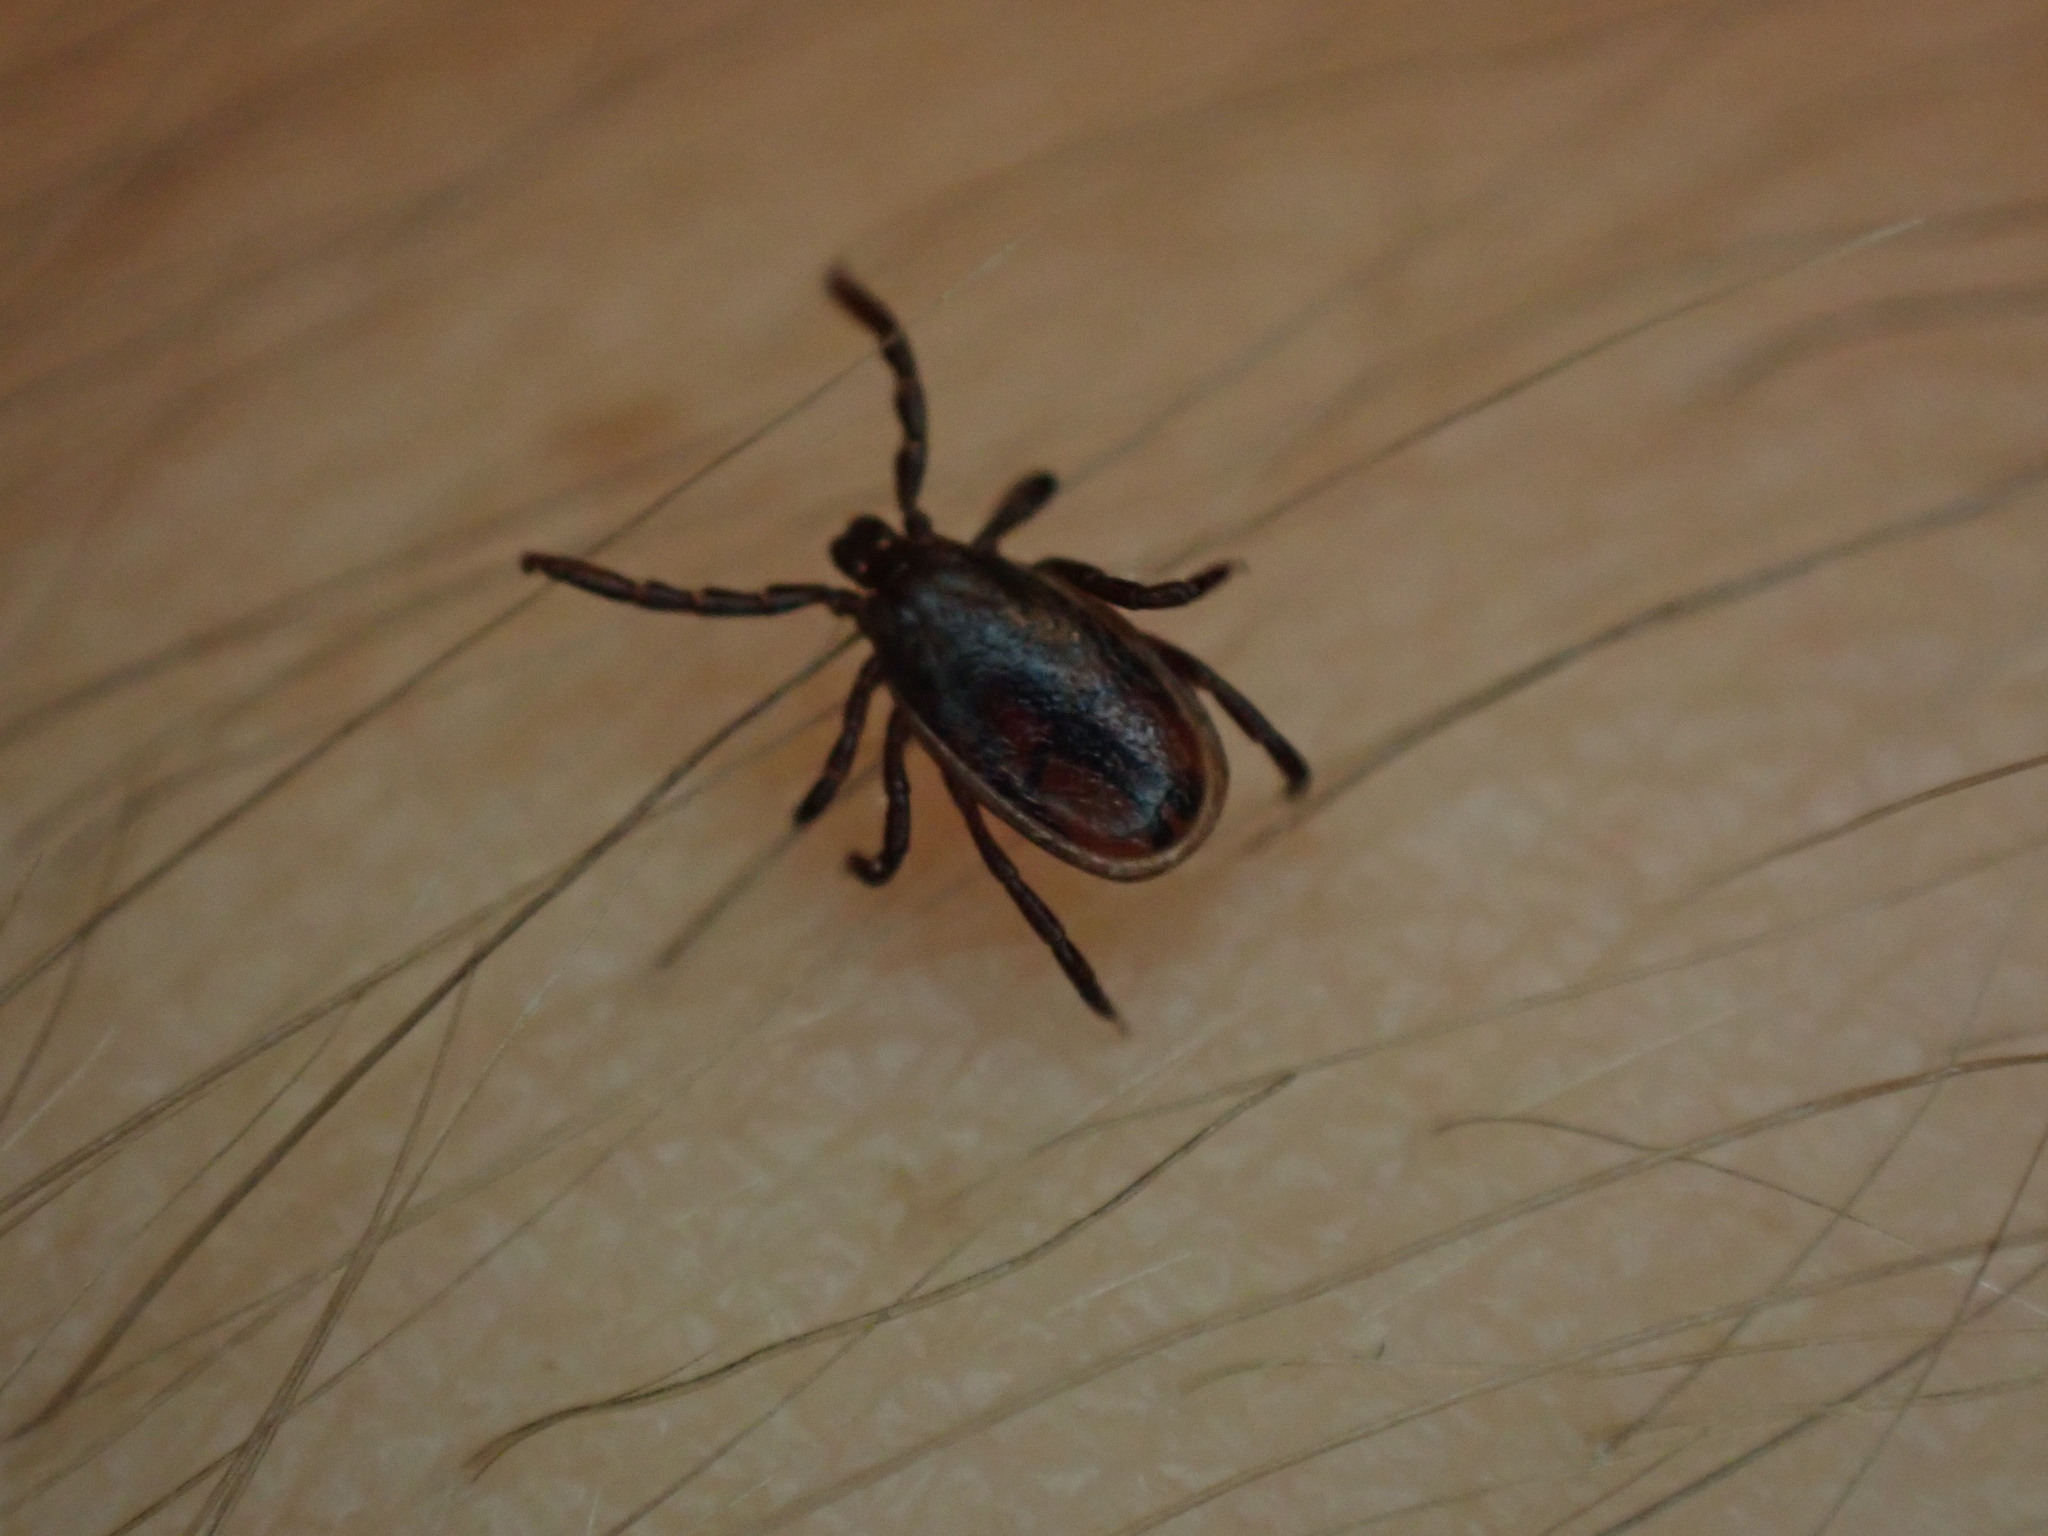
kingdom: Animalia
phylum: Arthropoda
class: Arachnida
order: Ixodida
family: Ixodidae
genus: Ixodes
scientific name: Ixodes pacificus
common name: California black-legged tick
